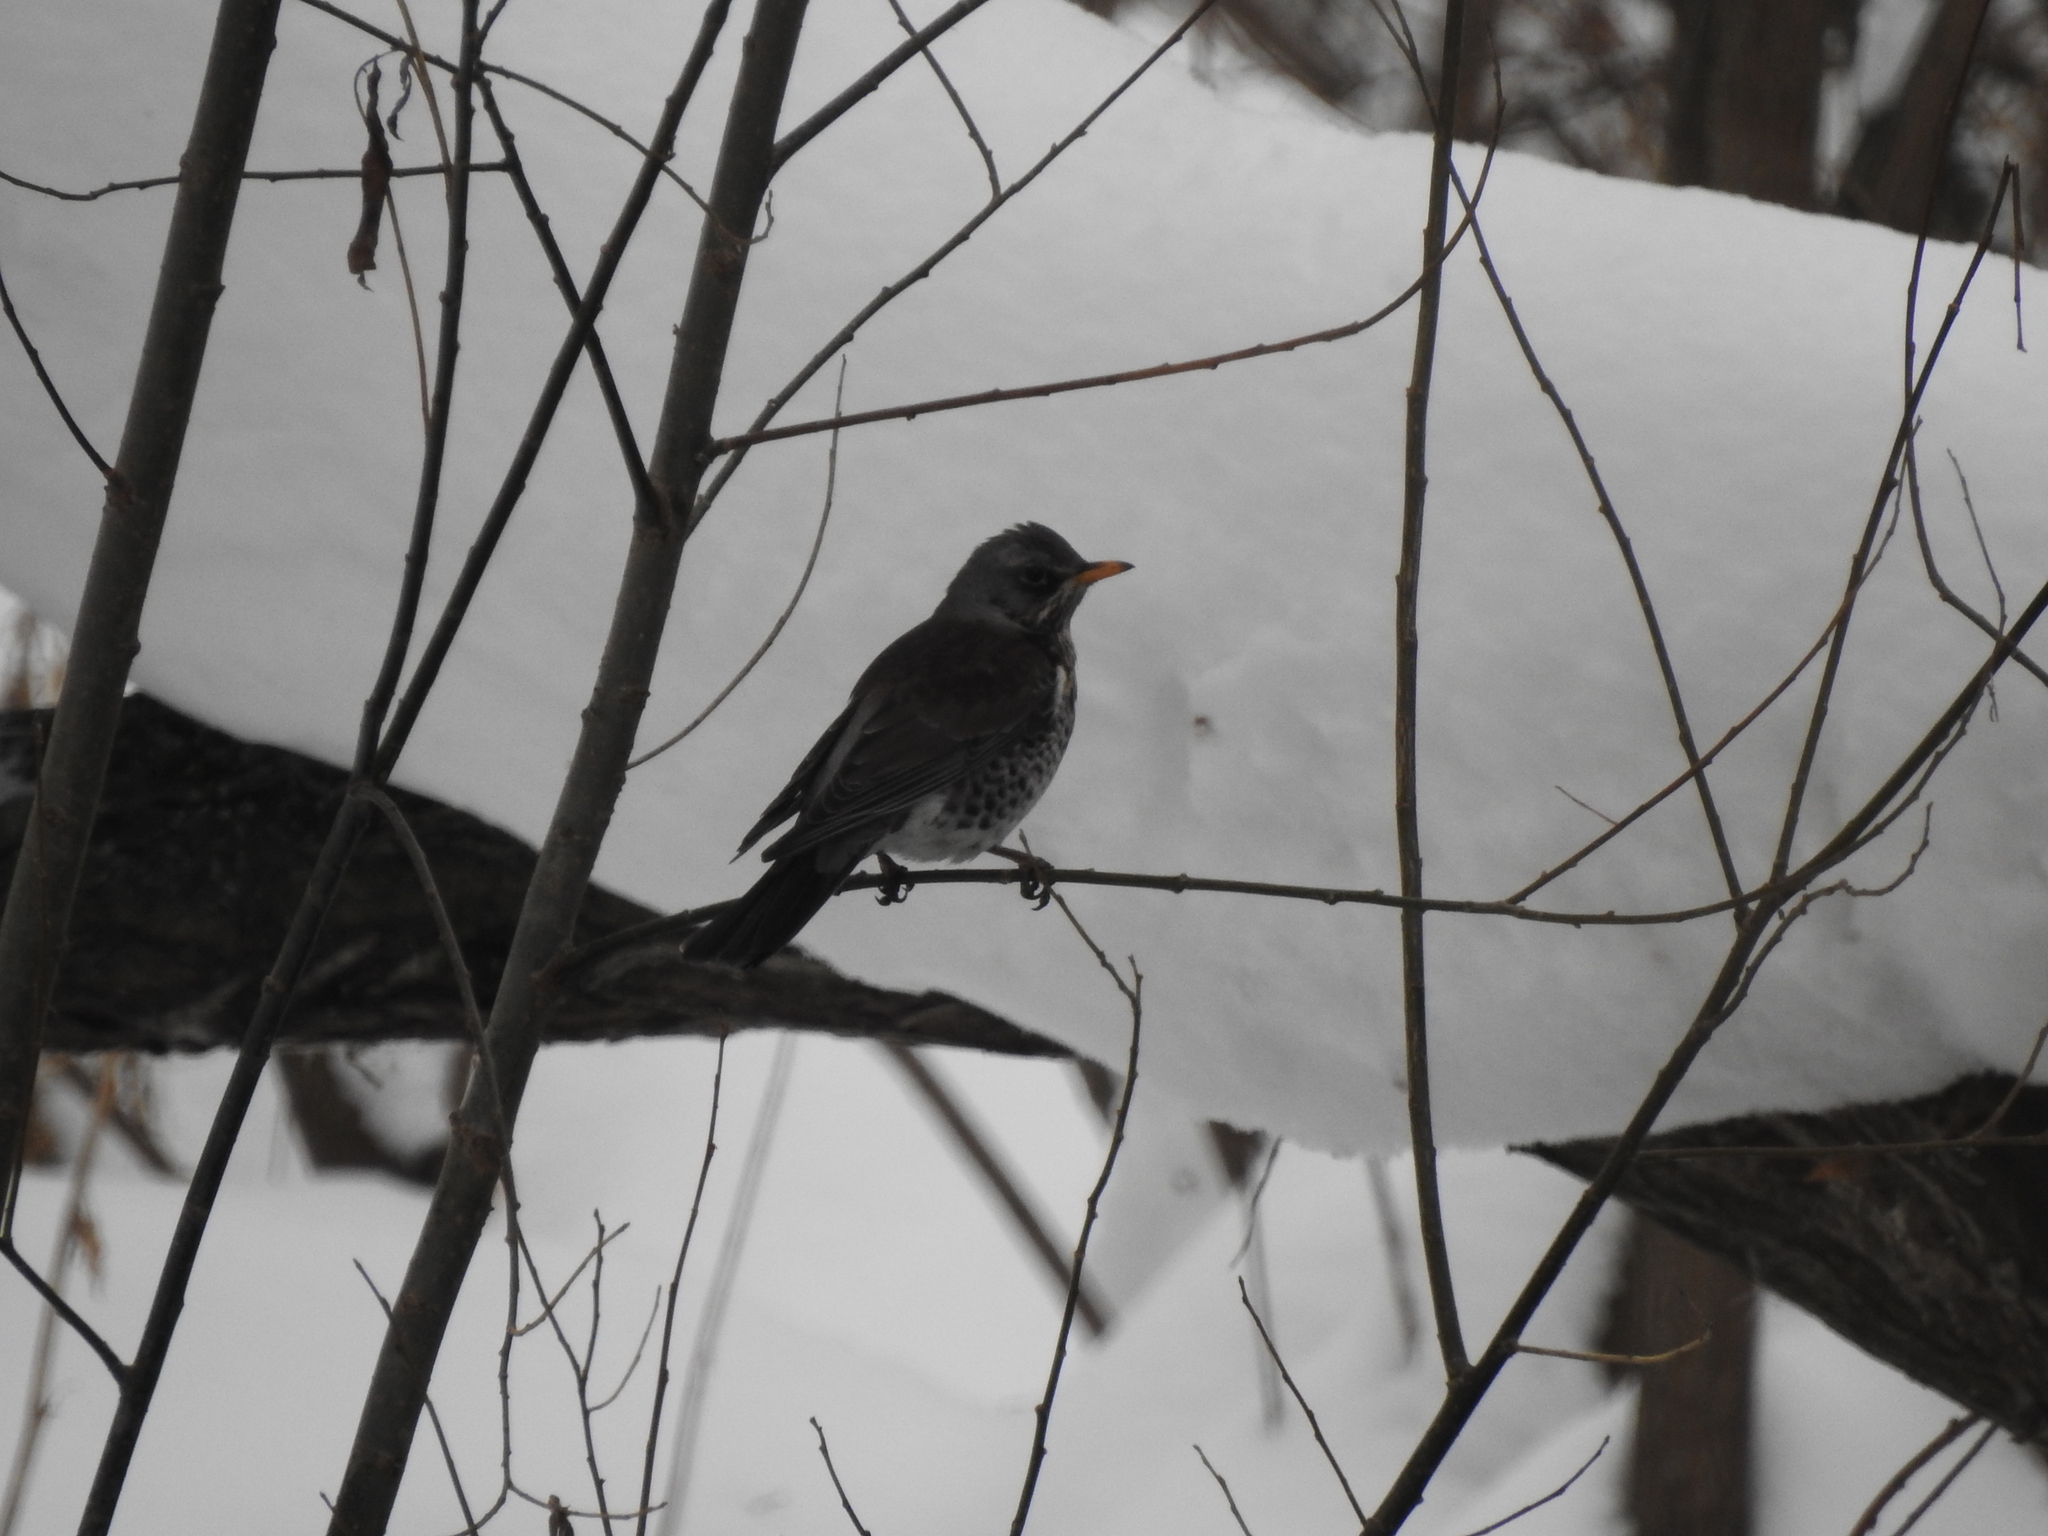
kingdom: Animalia
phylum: Chordata
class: Aves
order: Passeriformes
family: Turdidae
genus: Turdus
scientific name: Turdus pilaris
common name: Fieldfare
